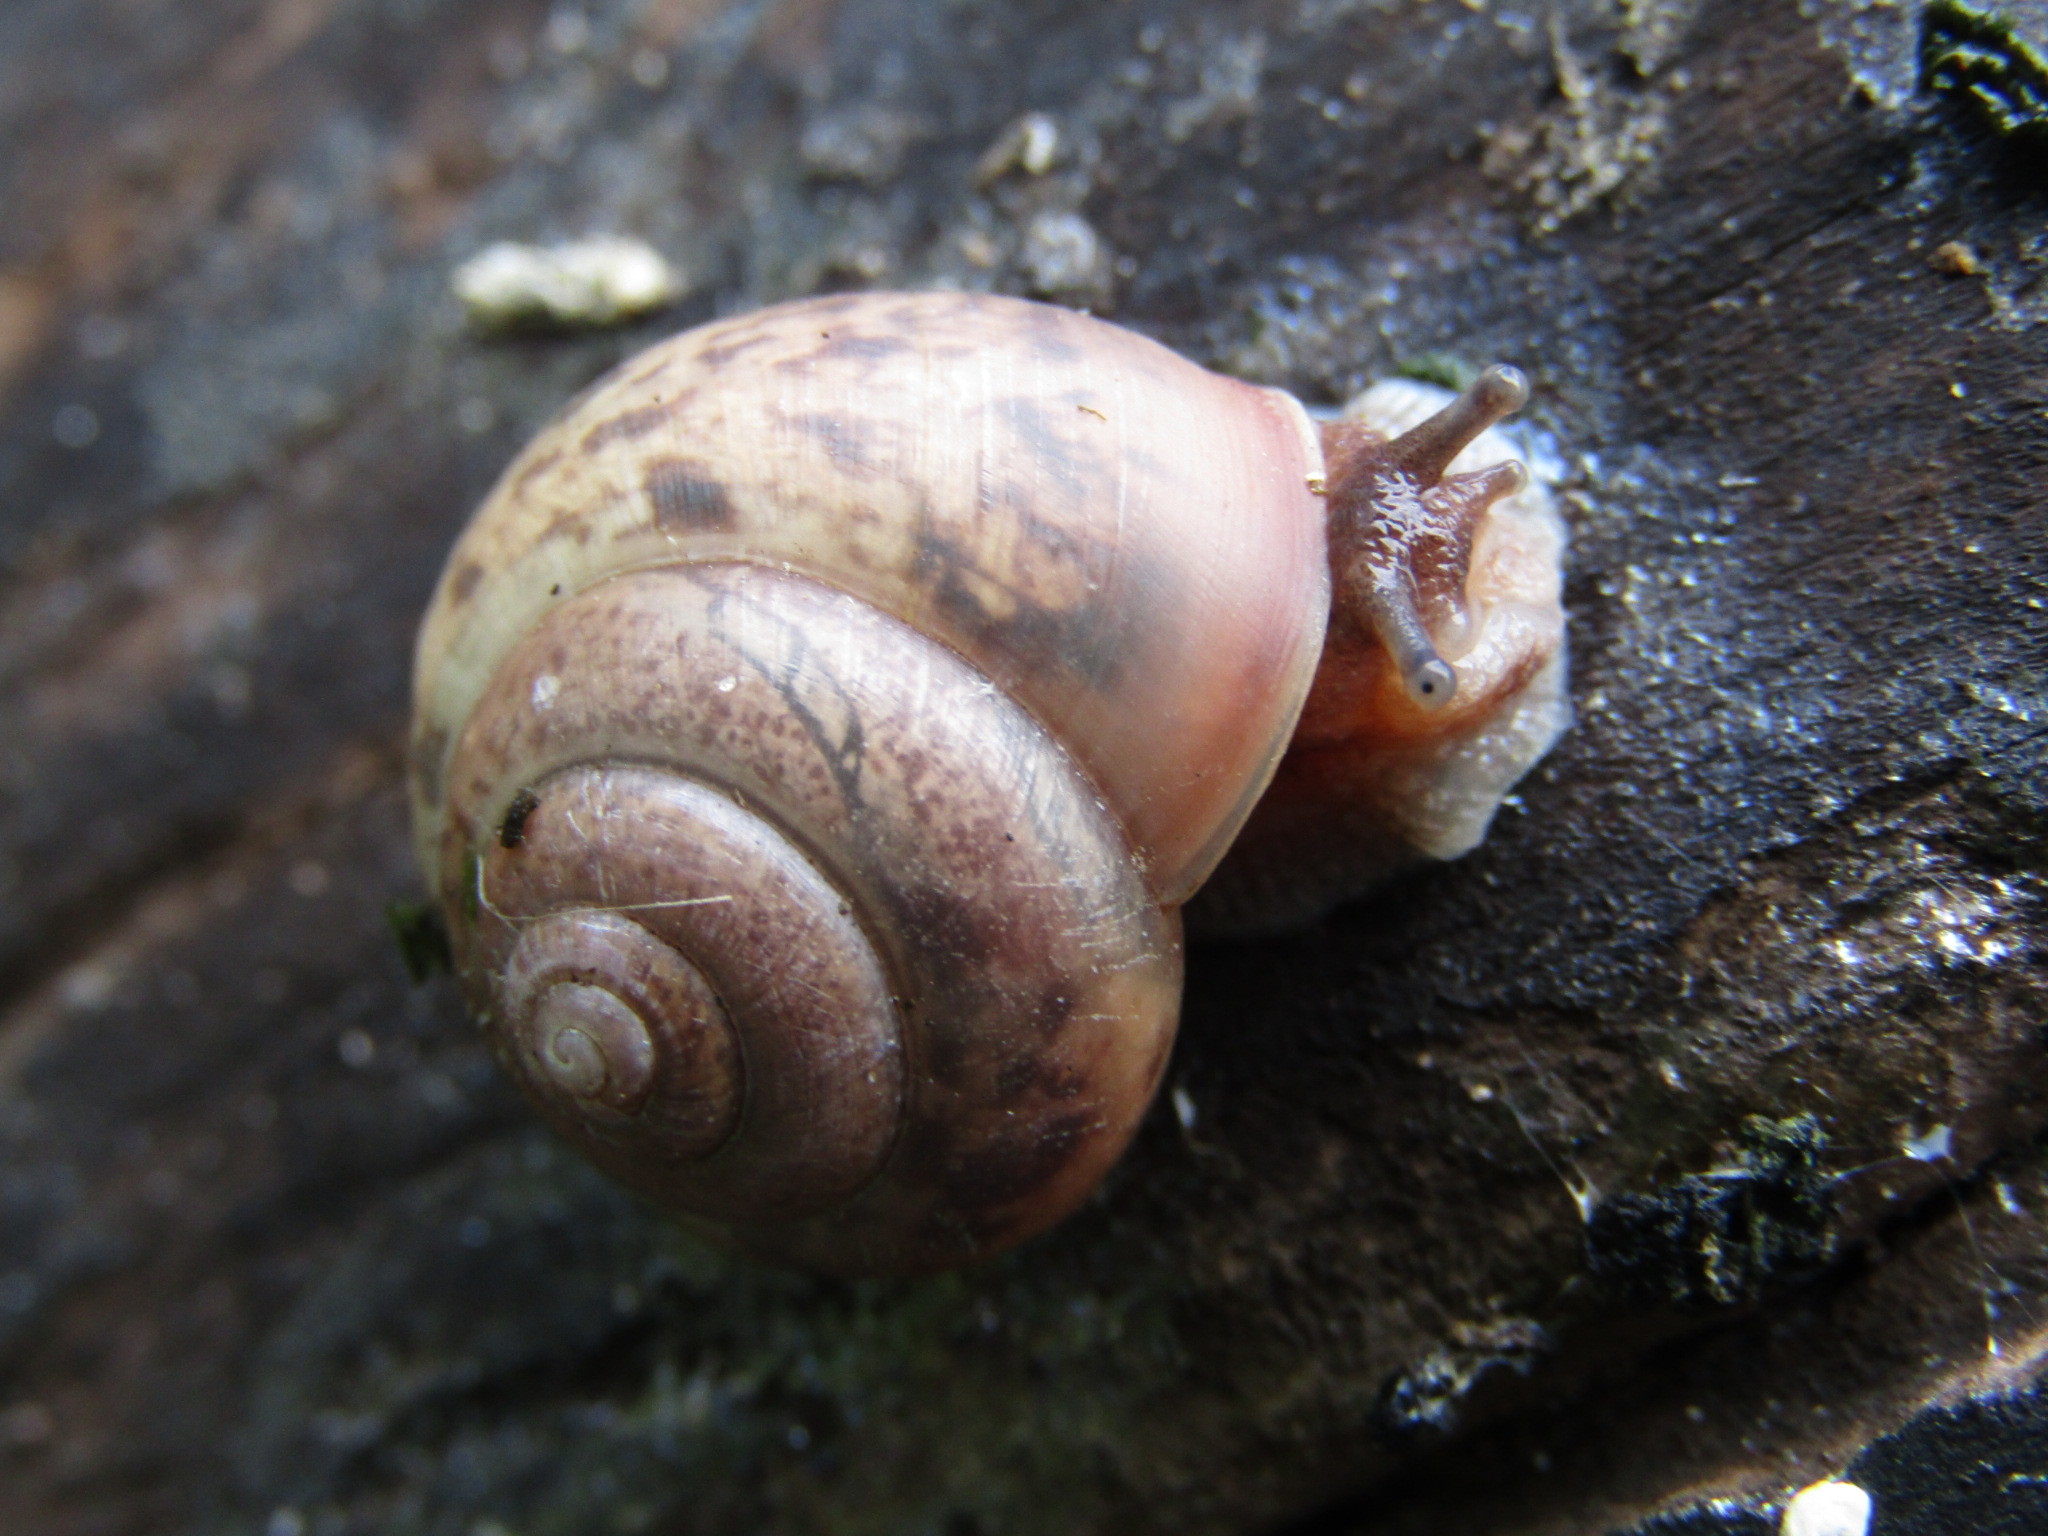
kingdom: Animalia
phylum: Mollusca
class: Gastropoda
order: Stylommatophora
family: Camaenidae
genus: Fruticicola
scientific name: Fruticicola fruticum
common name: Bush snail
